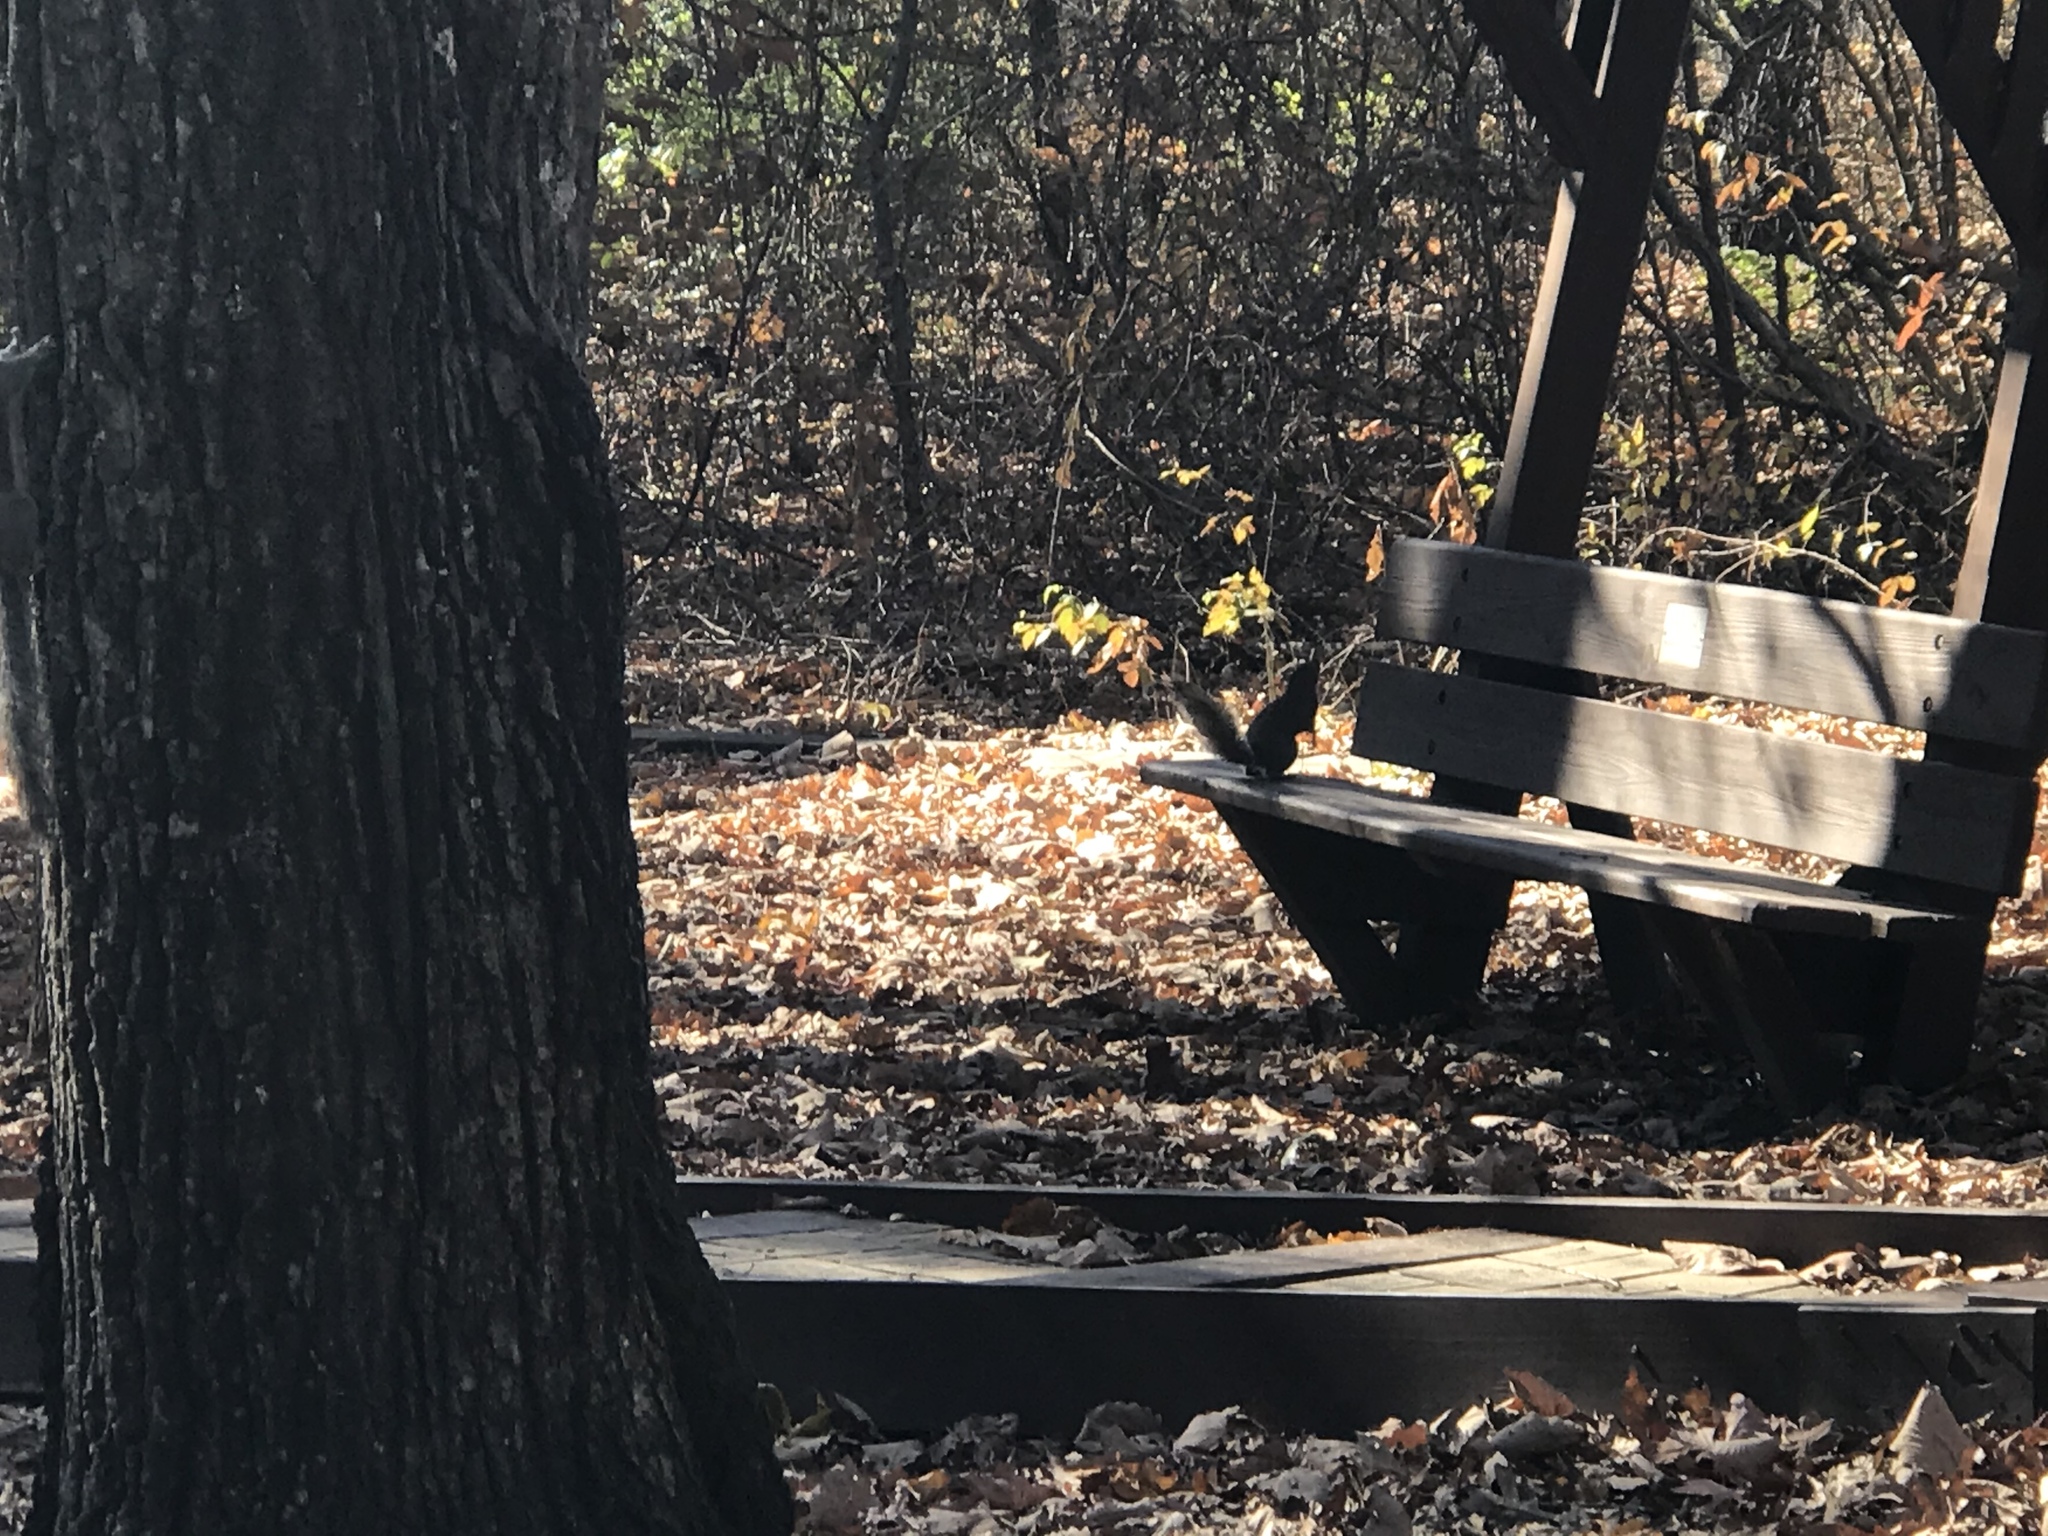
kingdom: Animalia
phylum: Chordata
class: Mammalia
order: Rodentia
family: Sciuridae
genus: Sciurus
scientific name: Sciurus carolinensis
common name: Eastern gray squirrel
